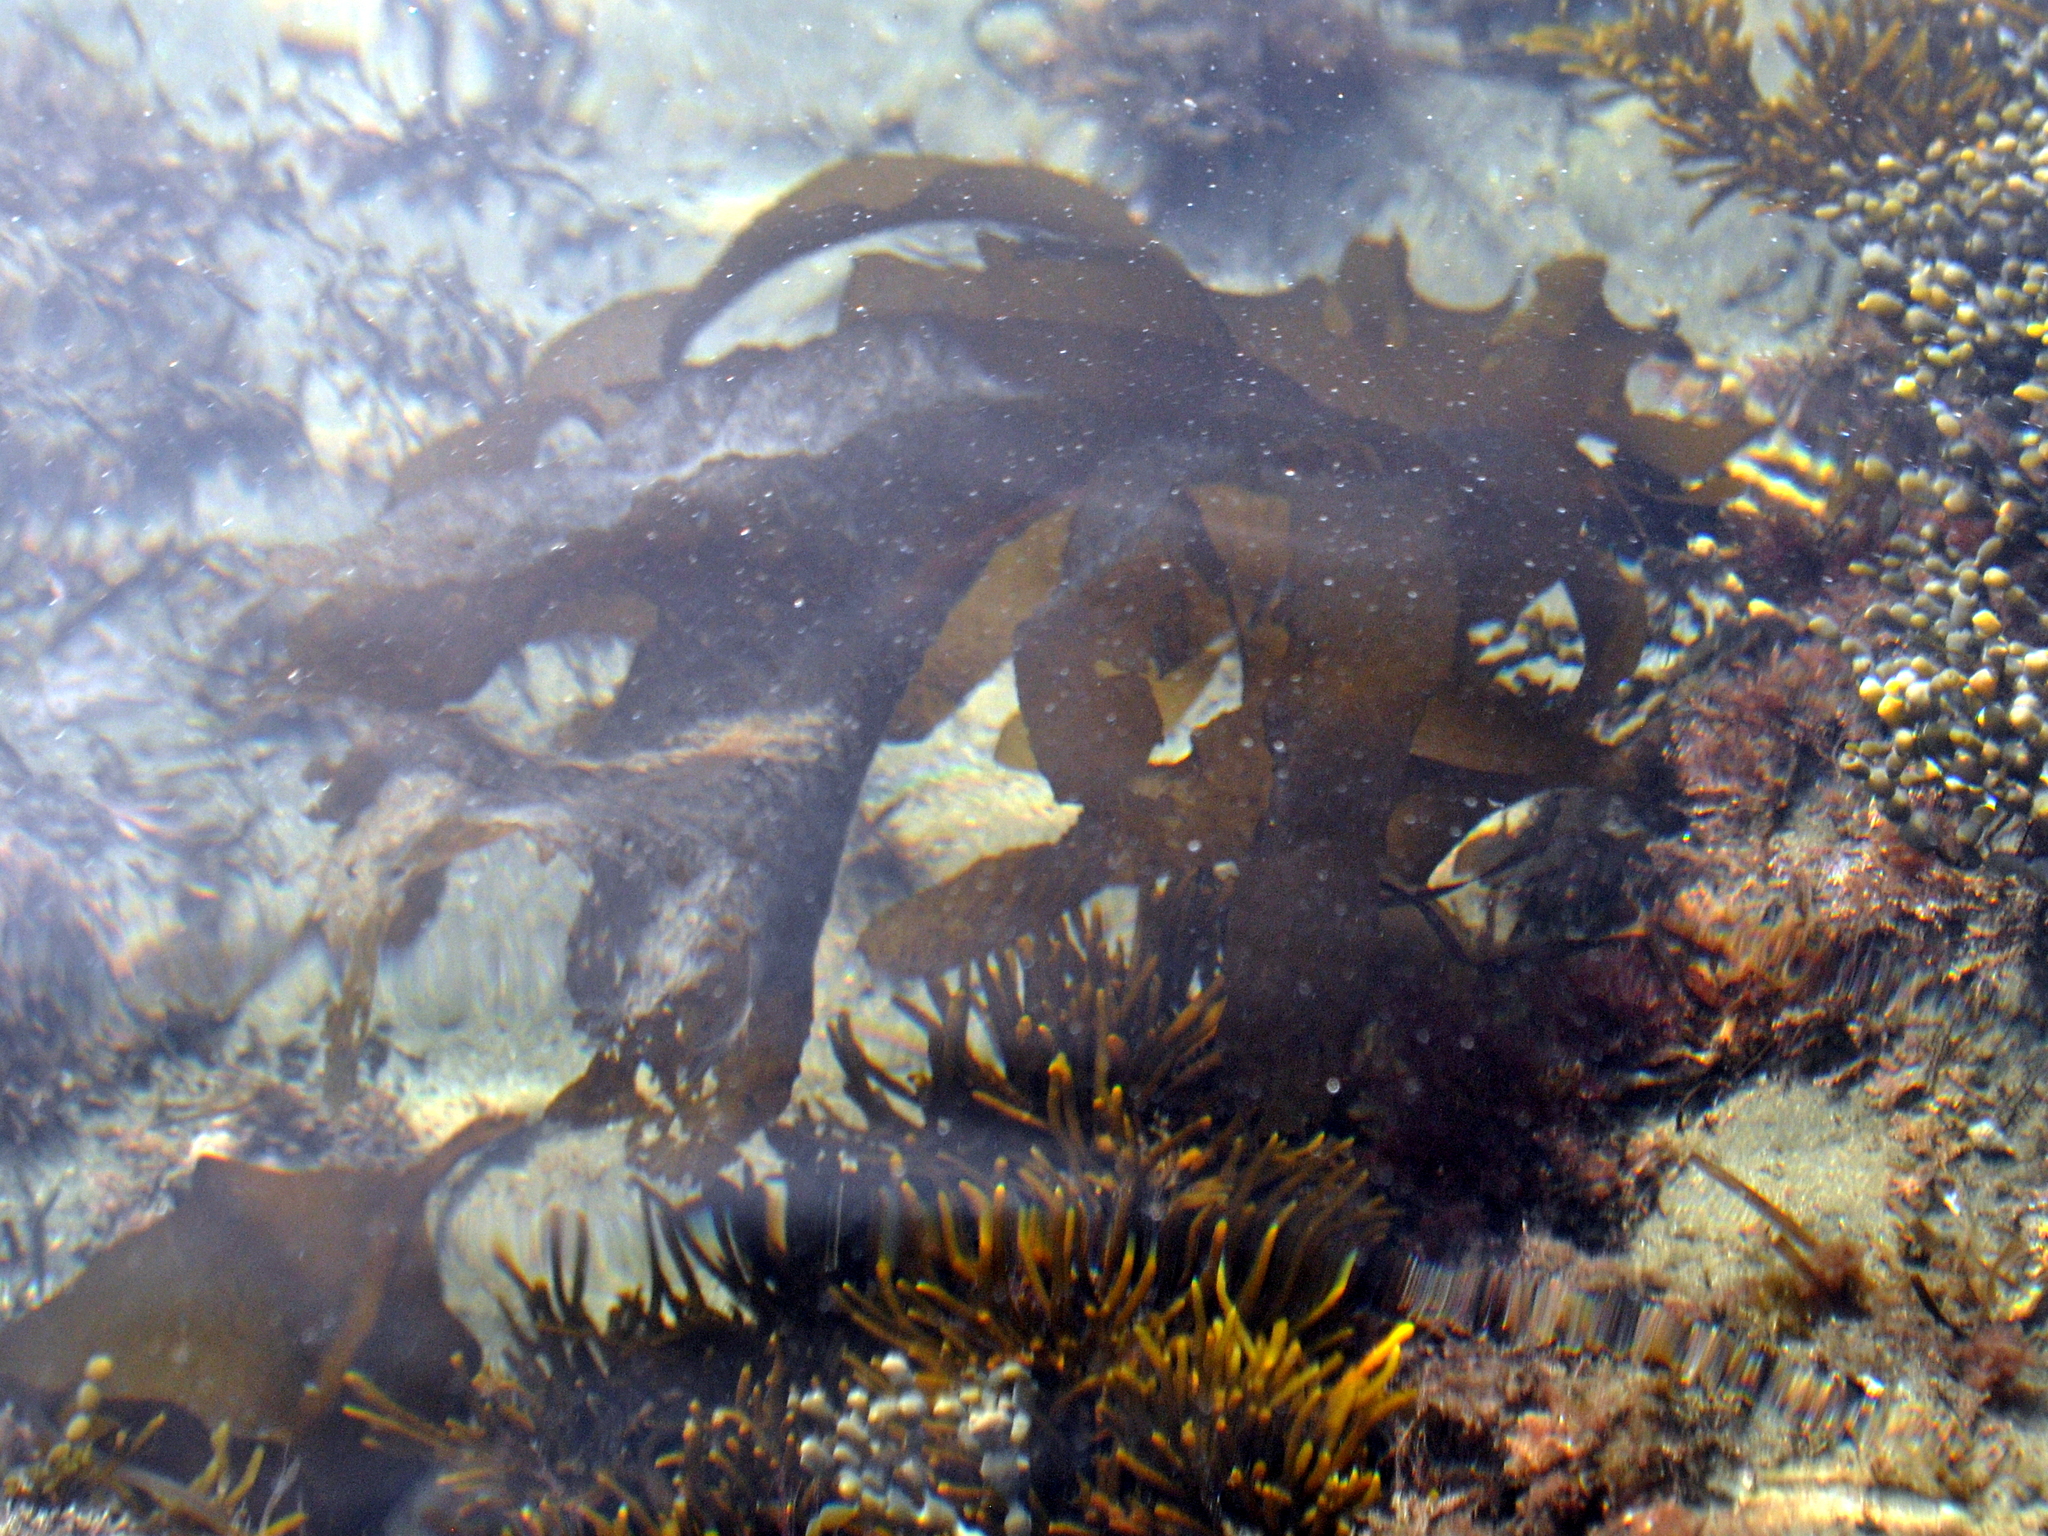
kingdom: Chromista
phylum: Ochrophyta
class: Phaeophyceae
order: Laminariales
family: Alariaceae
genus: Undaria
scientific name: Undaria pinnatifida
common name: Asian kelp
